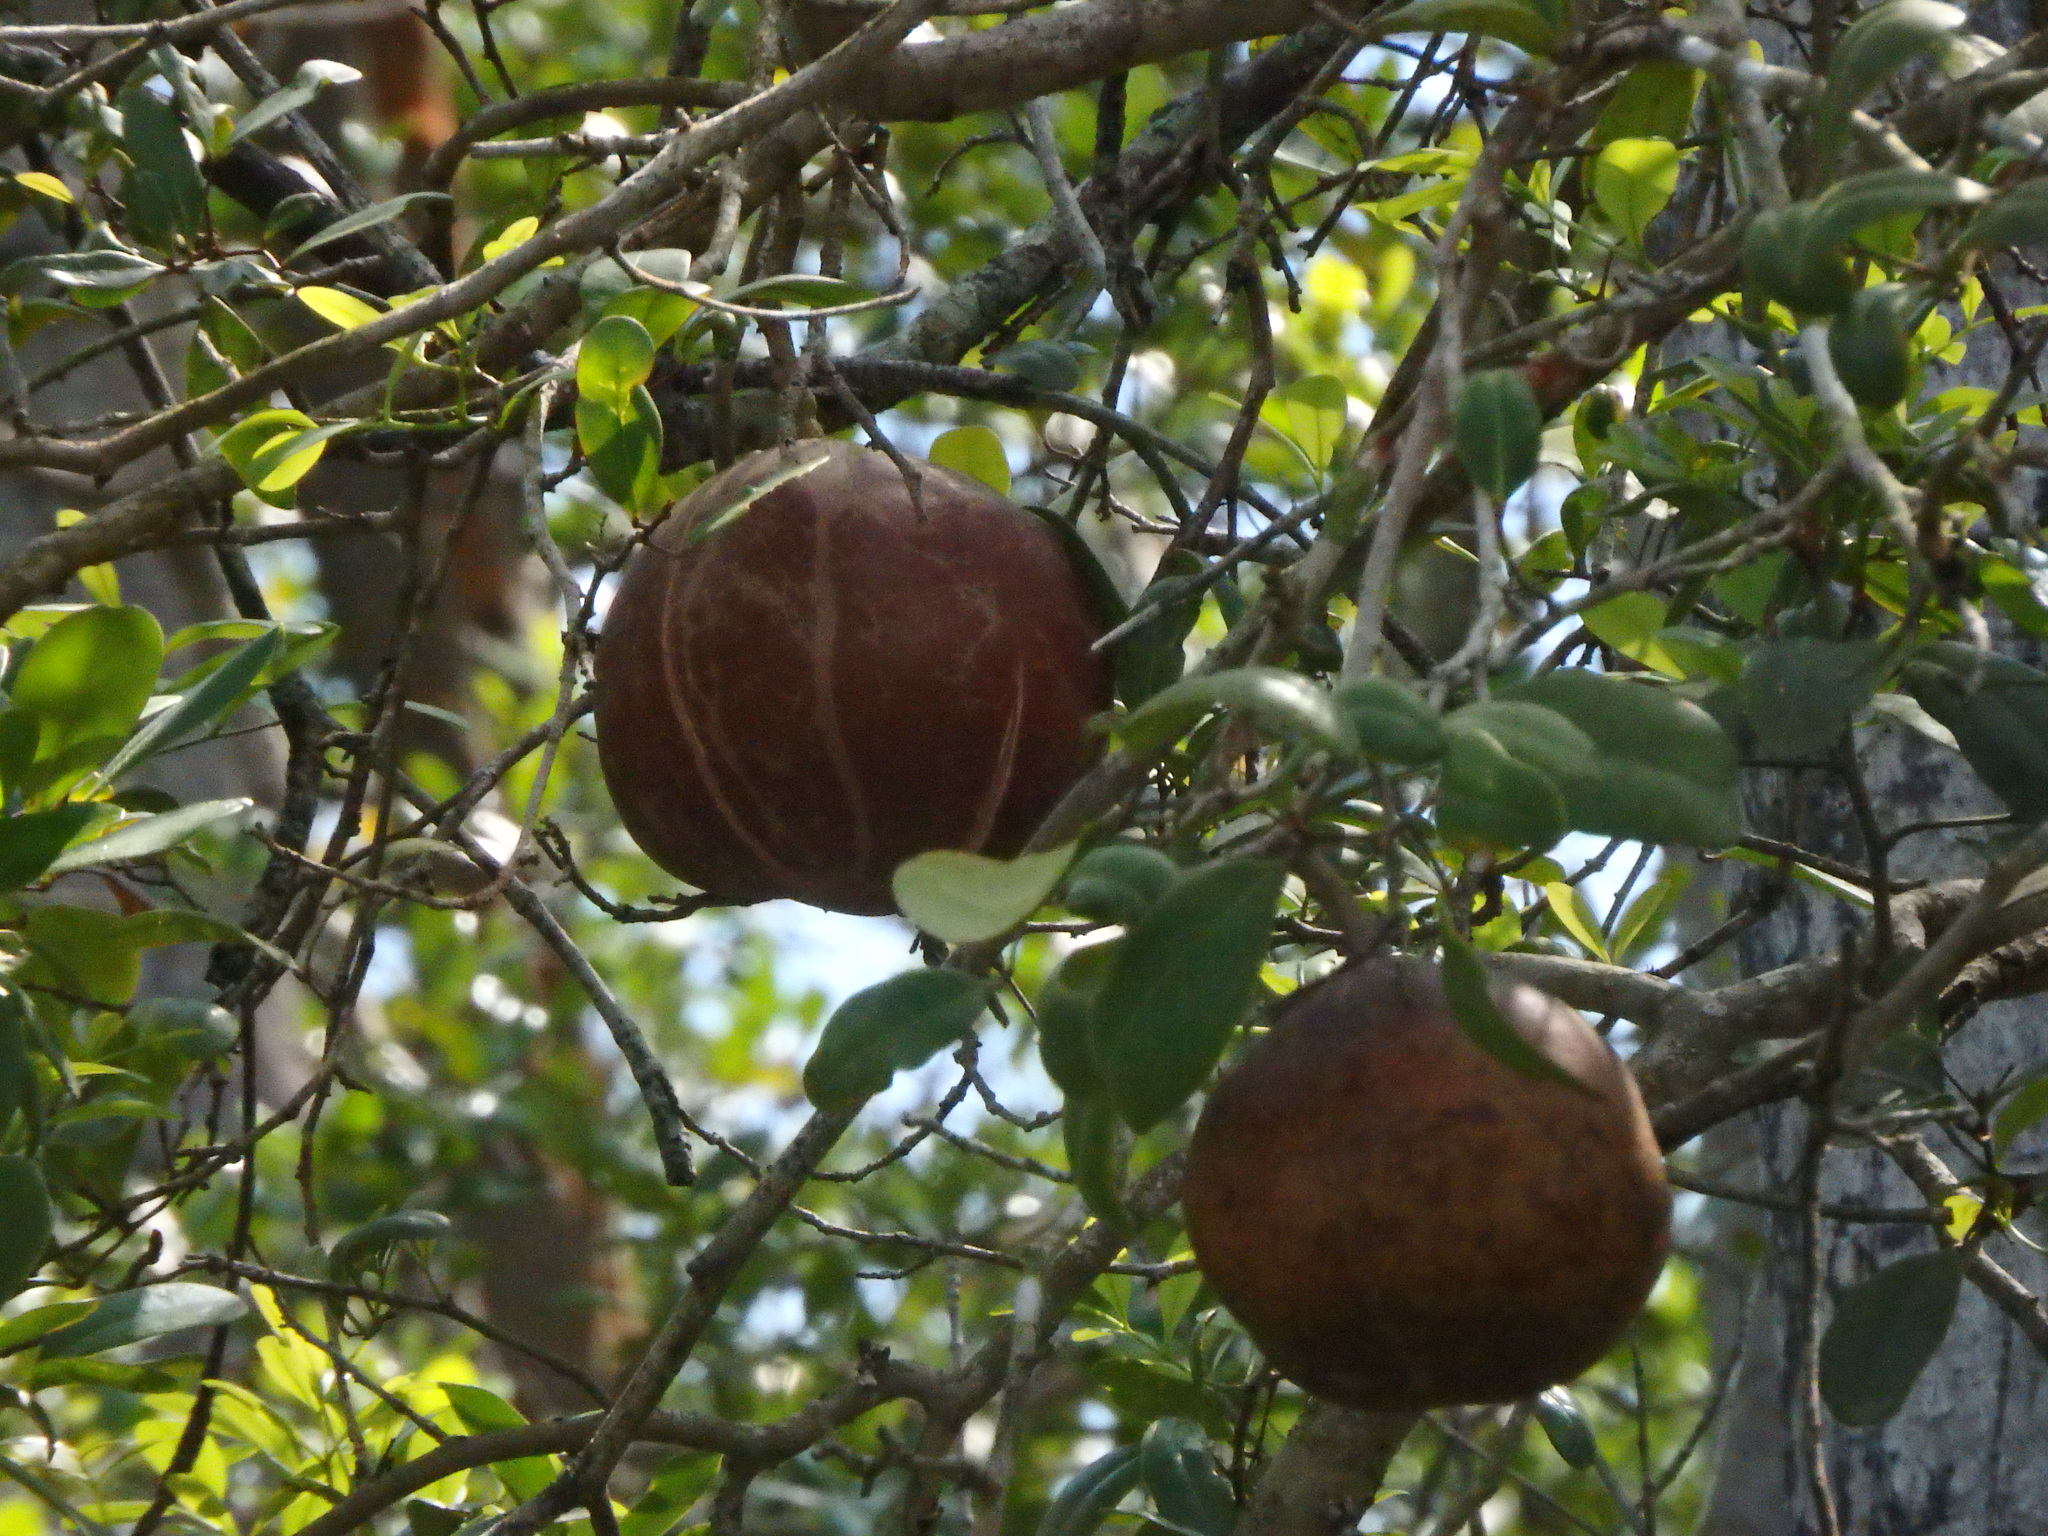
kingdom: Plantae
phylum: Tracheophyta
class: Magnoliopsida
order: Sapindales
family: Meliaceae
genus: Xylocarpus
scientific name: Xylocarpus granatum
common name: Apple mangrove
